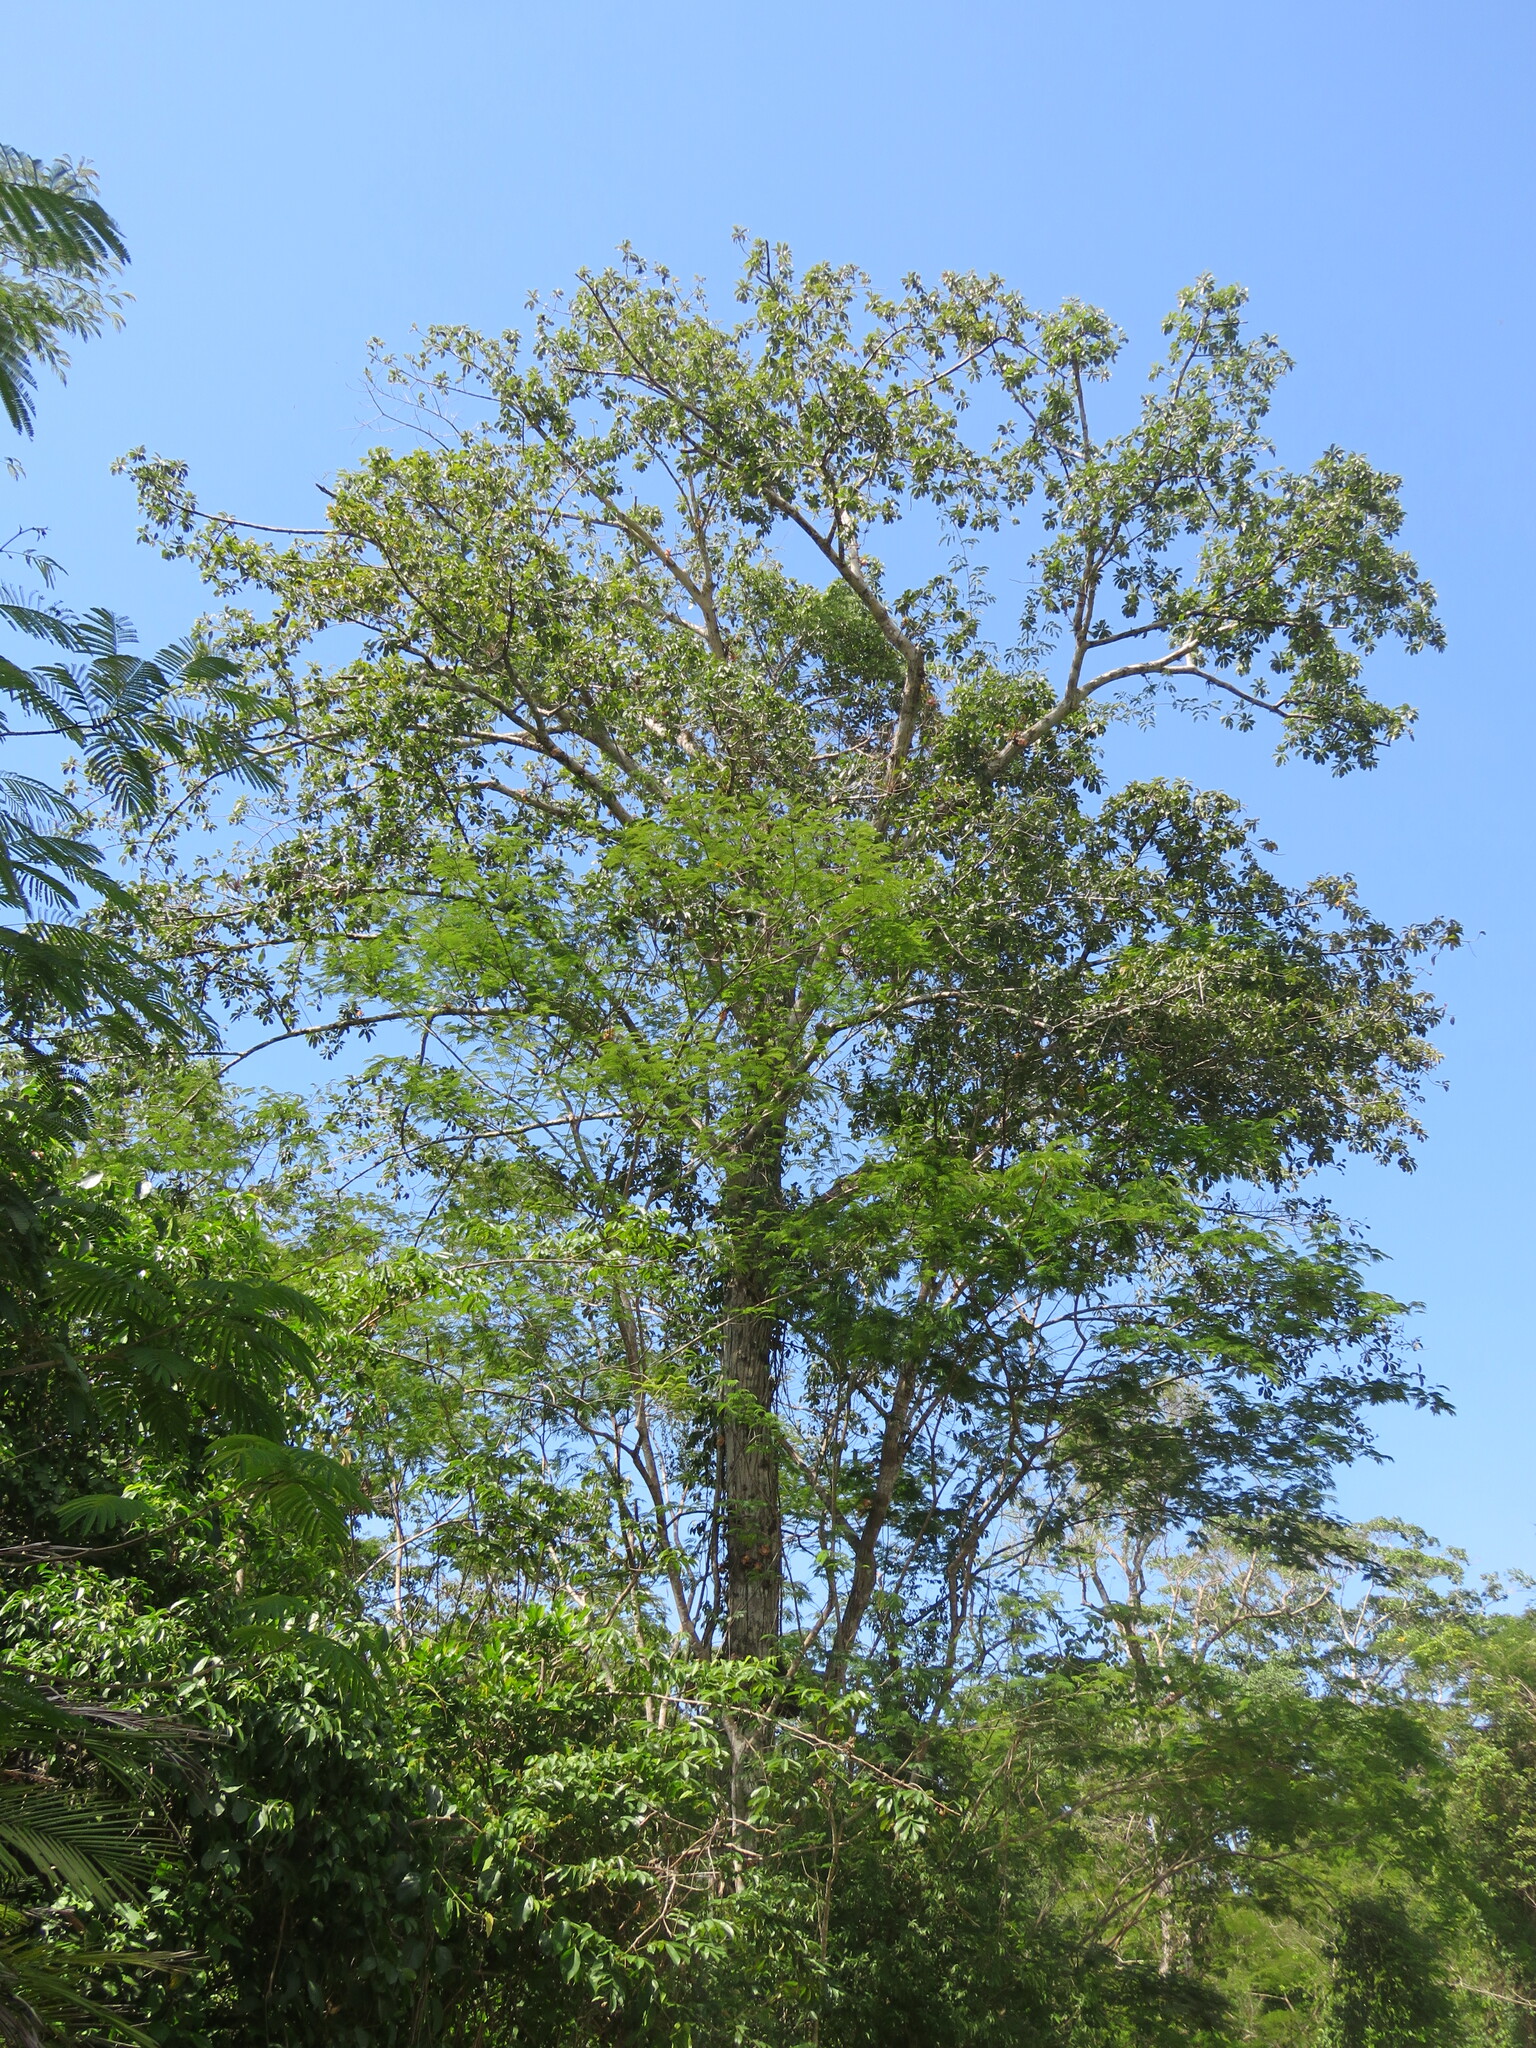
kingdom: Plantae
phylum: Tracheophyta
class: Magnoliopsida
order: Ericales
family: Lecythidaceae
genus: Couroupita
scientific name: Couroupita guianensis
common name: Cannonball tree
